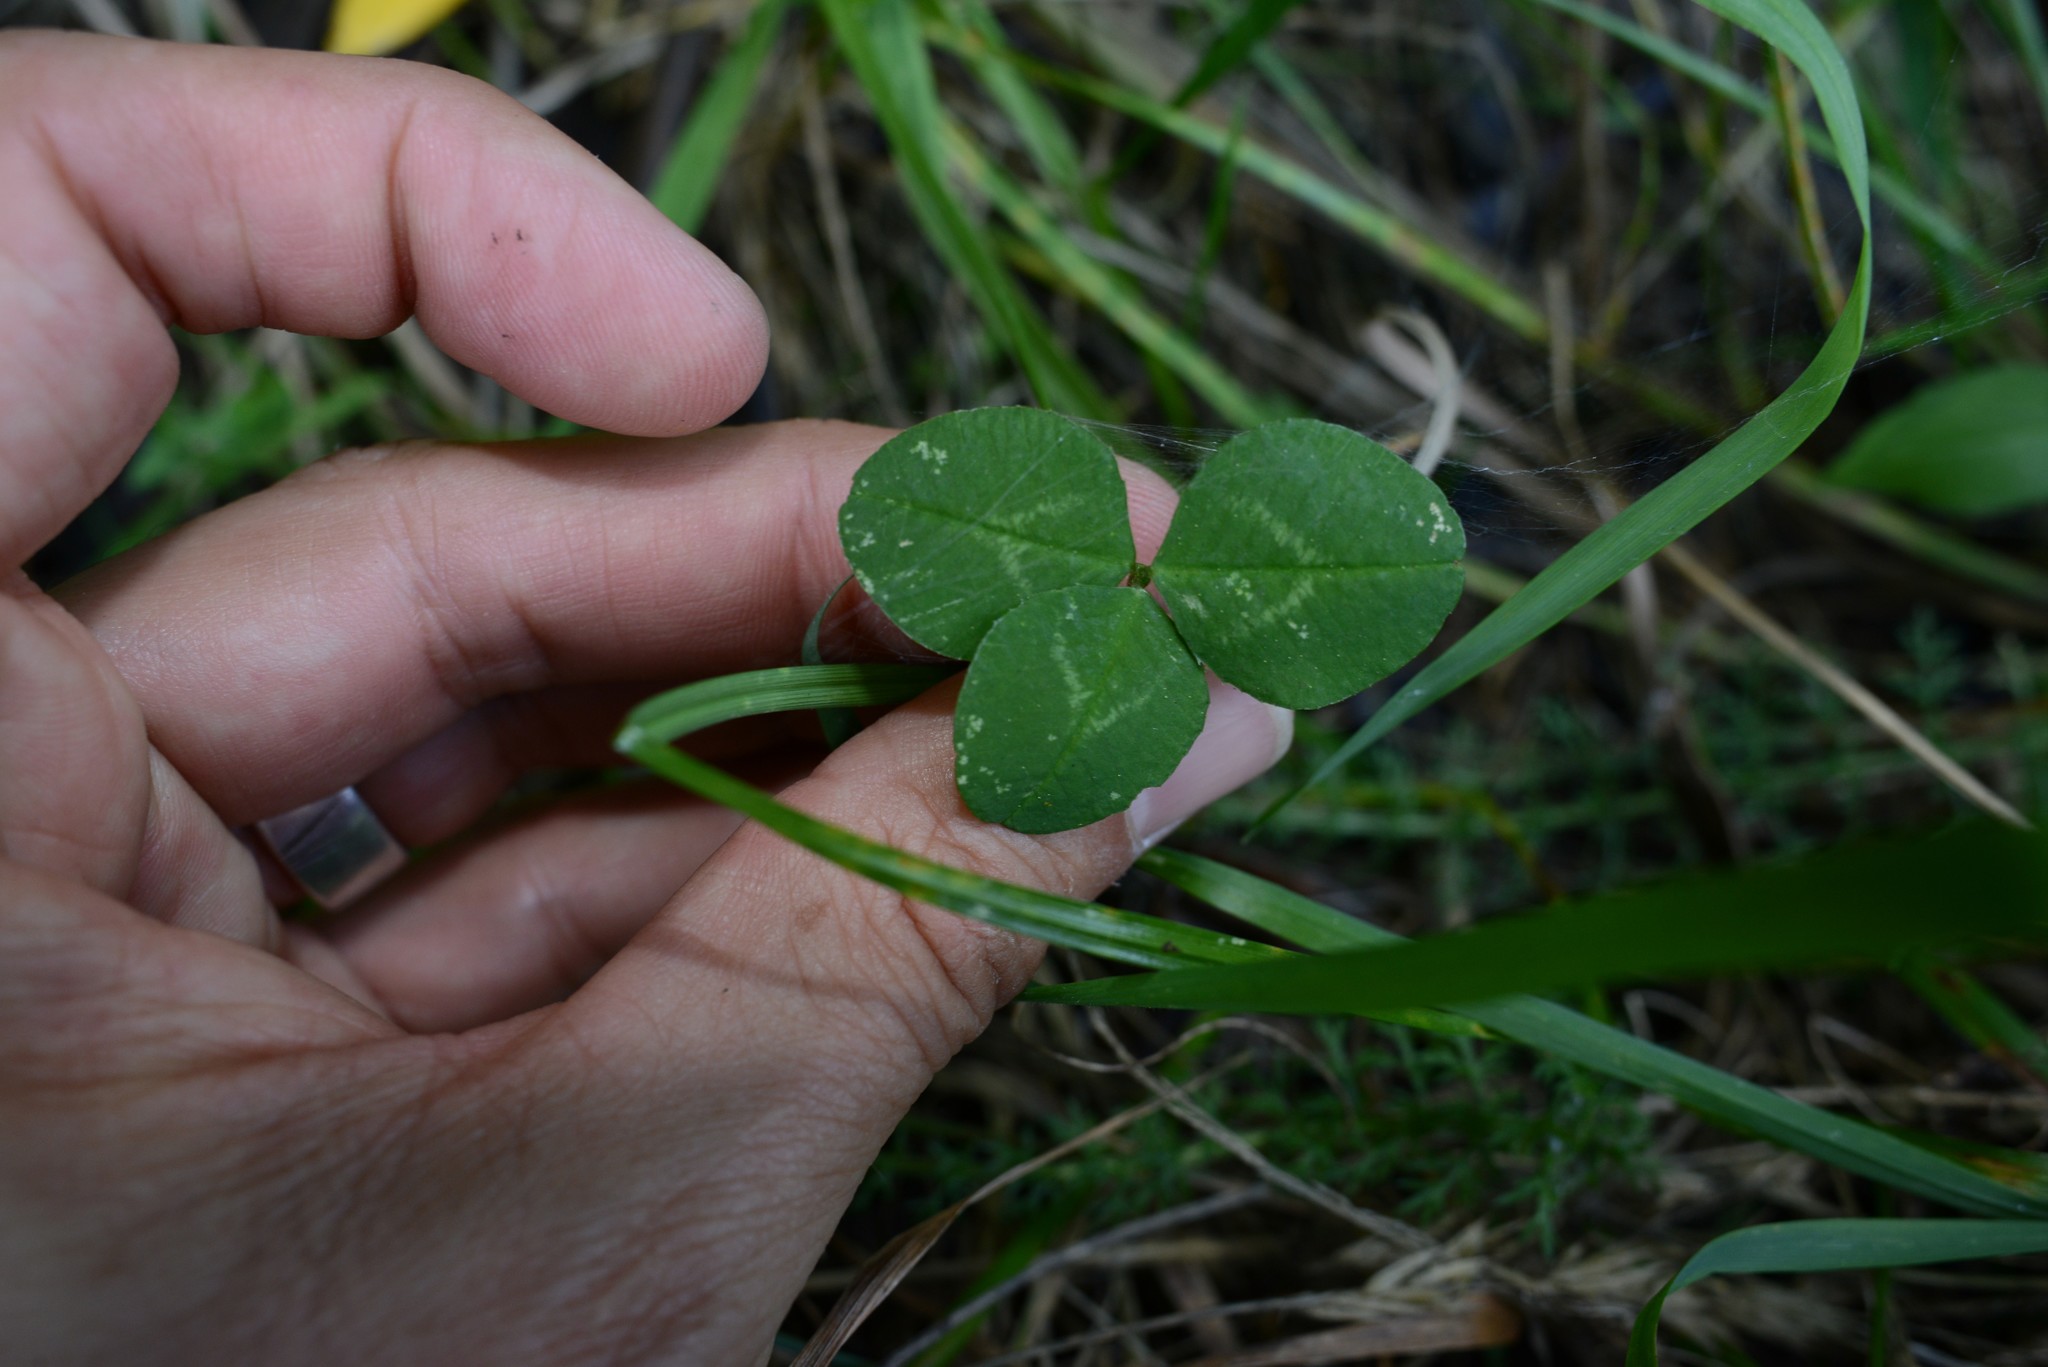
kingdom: Plantae
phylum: Tracheophyta
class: Magnoliopsida
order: Fabales
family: Fabaceae
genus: Trifolium
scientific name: Trifolium repens
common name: White clover
